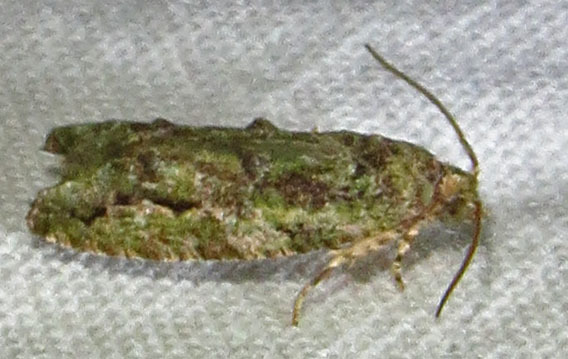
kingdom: Animalia
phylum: Arthropoda
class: Insecta
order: Lepidoptera
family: Tortricidae
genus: Proteoteras
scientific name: Proteoteras aesculana
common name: Maple twig borer moth
